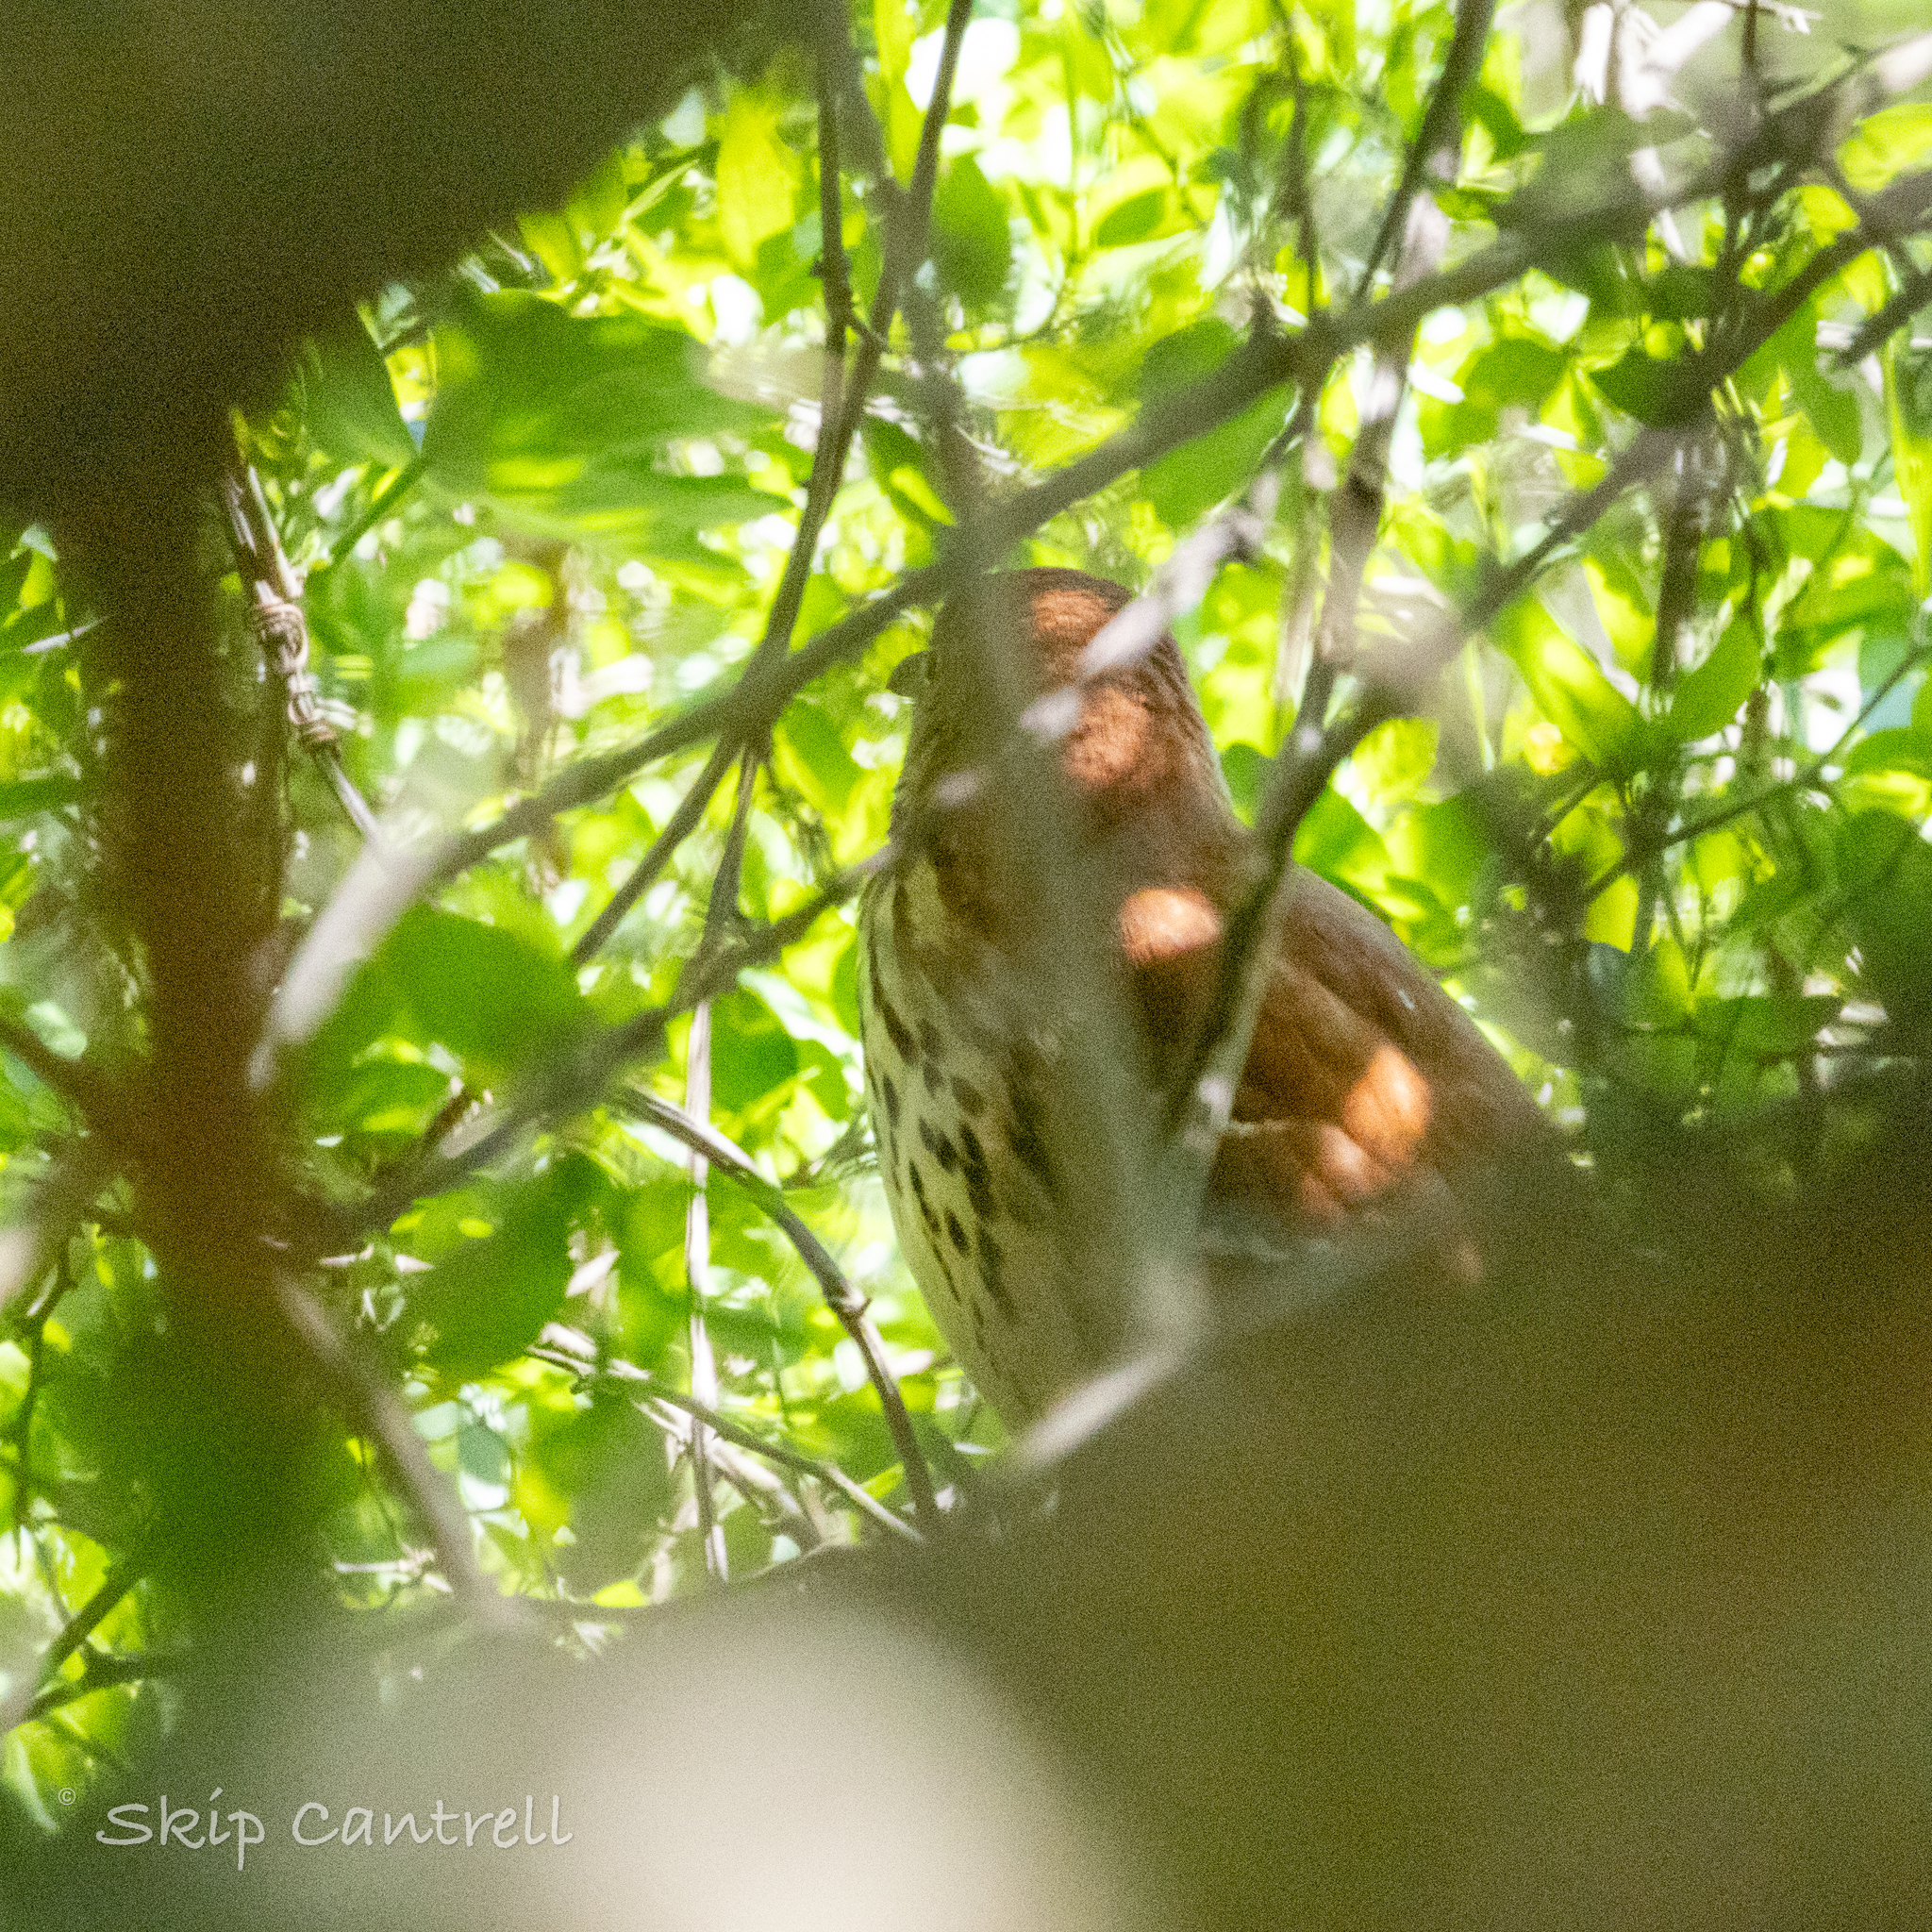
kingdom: Animalia
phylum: Chordata
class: Aves
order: Passeriformes
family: Mimidae
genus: Toxostoma
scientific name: Toxostoma rufum
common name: Brown thrasher
